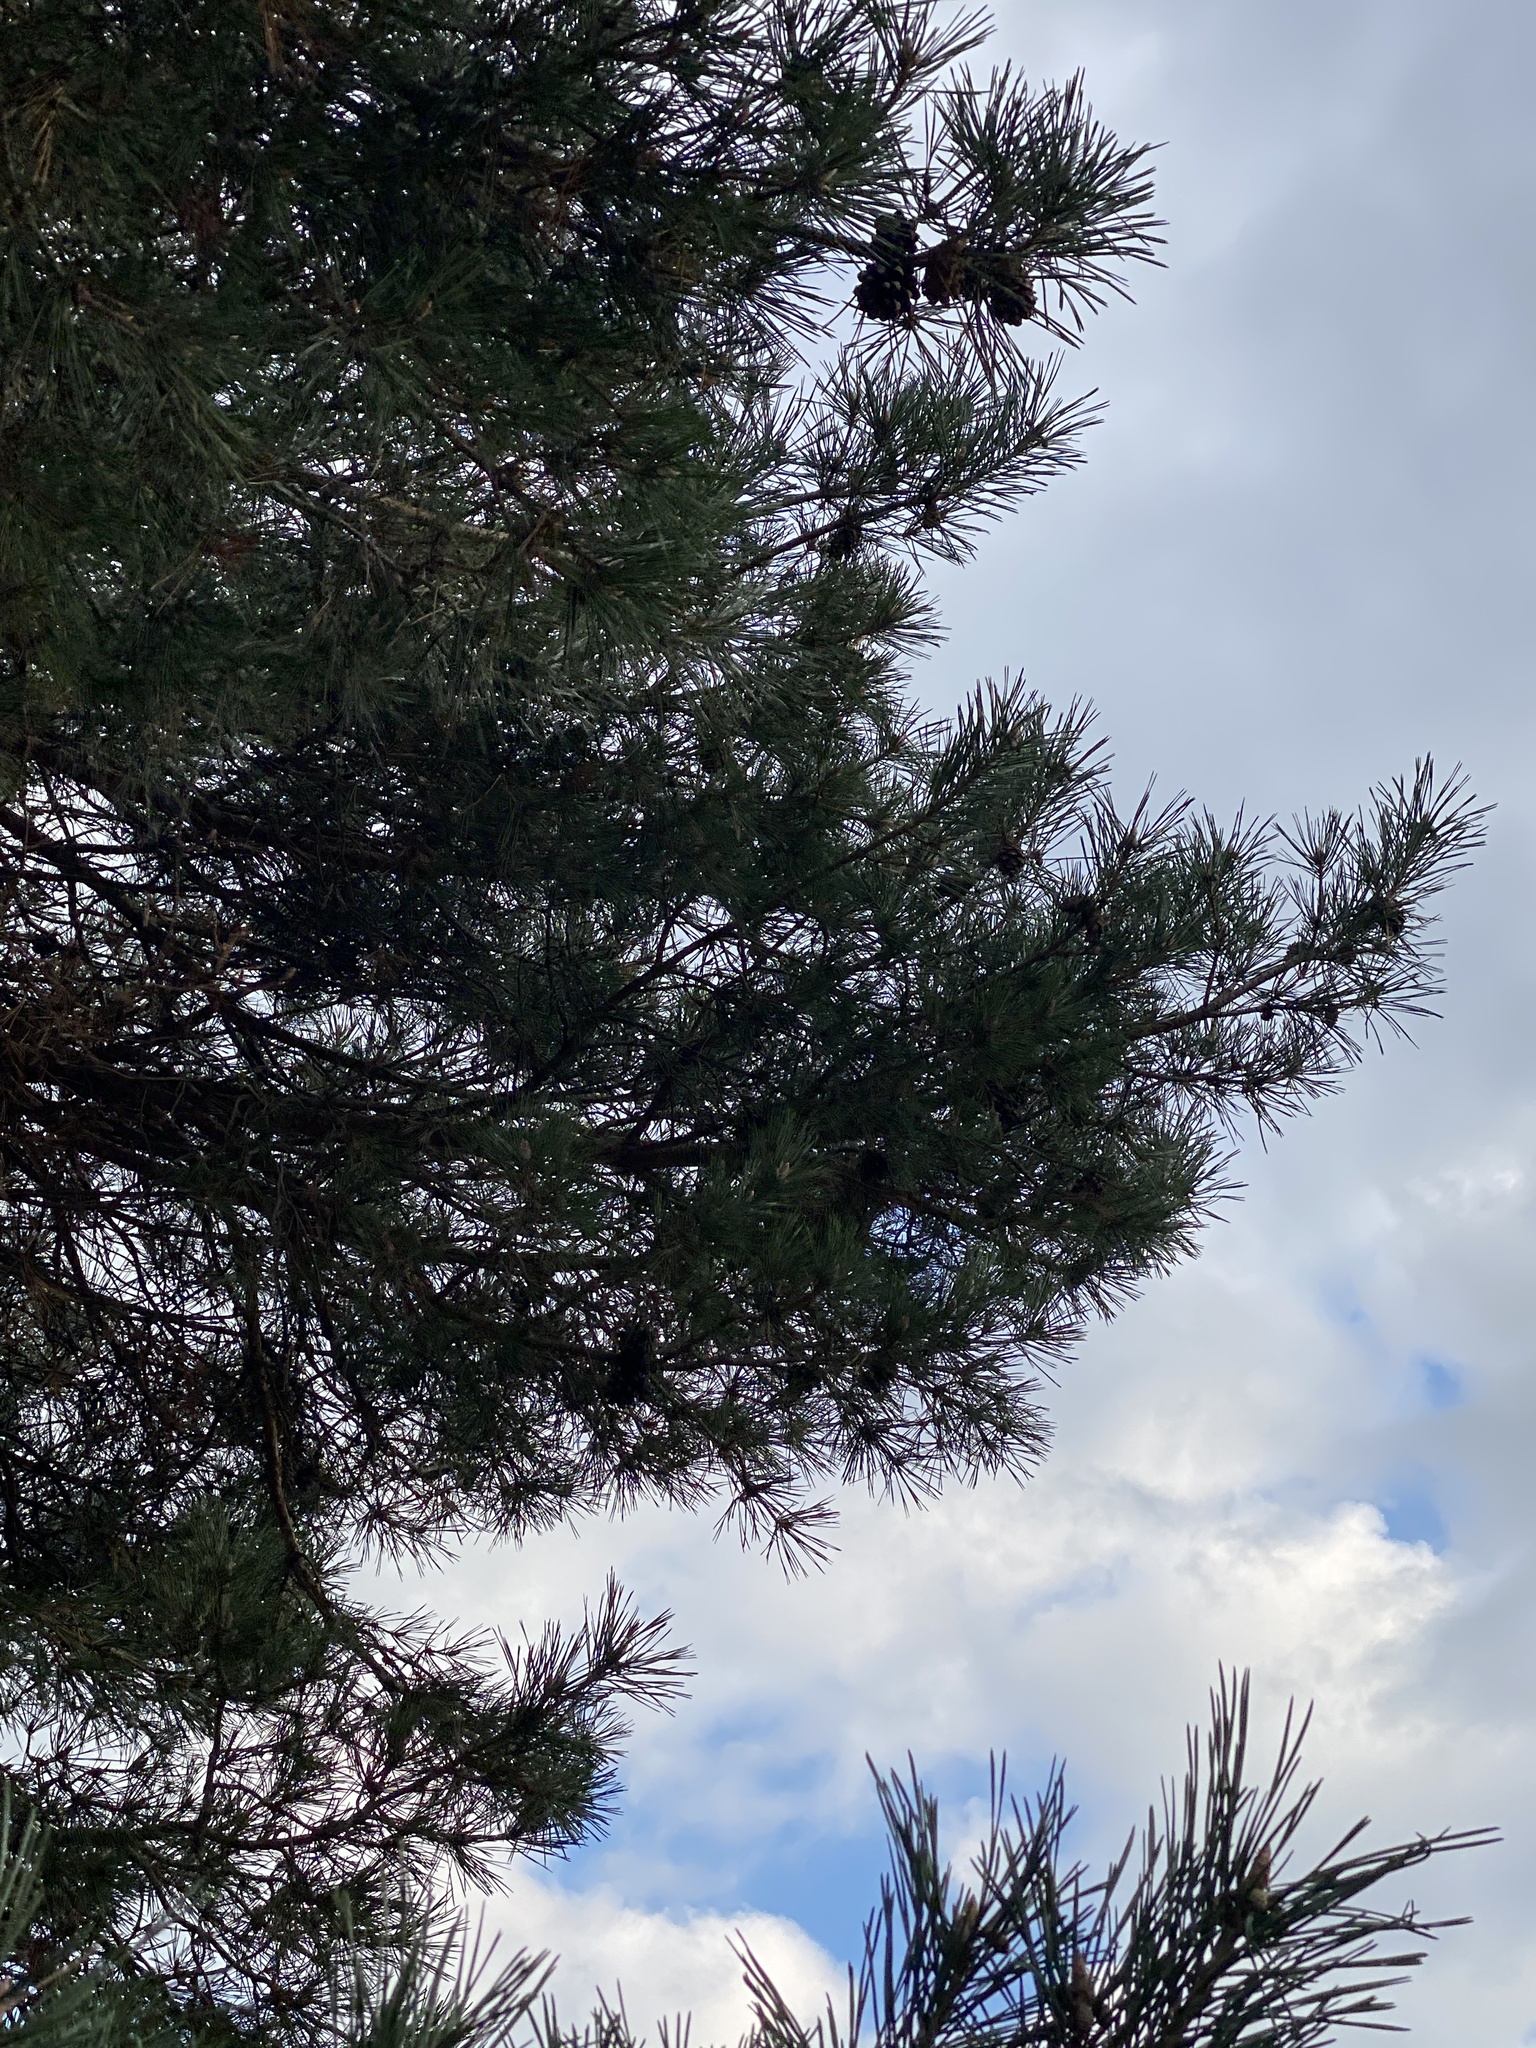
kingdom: Plantae
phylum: Tracheophyta
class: Pinopsida
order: Pinales
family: Pinaceae
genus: Pinus
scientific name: Pinus sylvestris
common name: Scots pine
